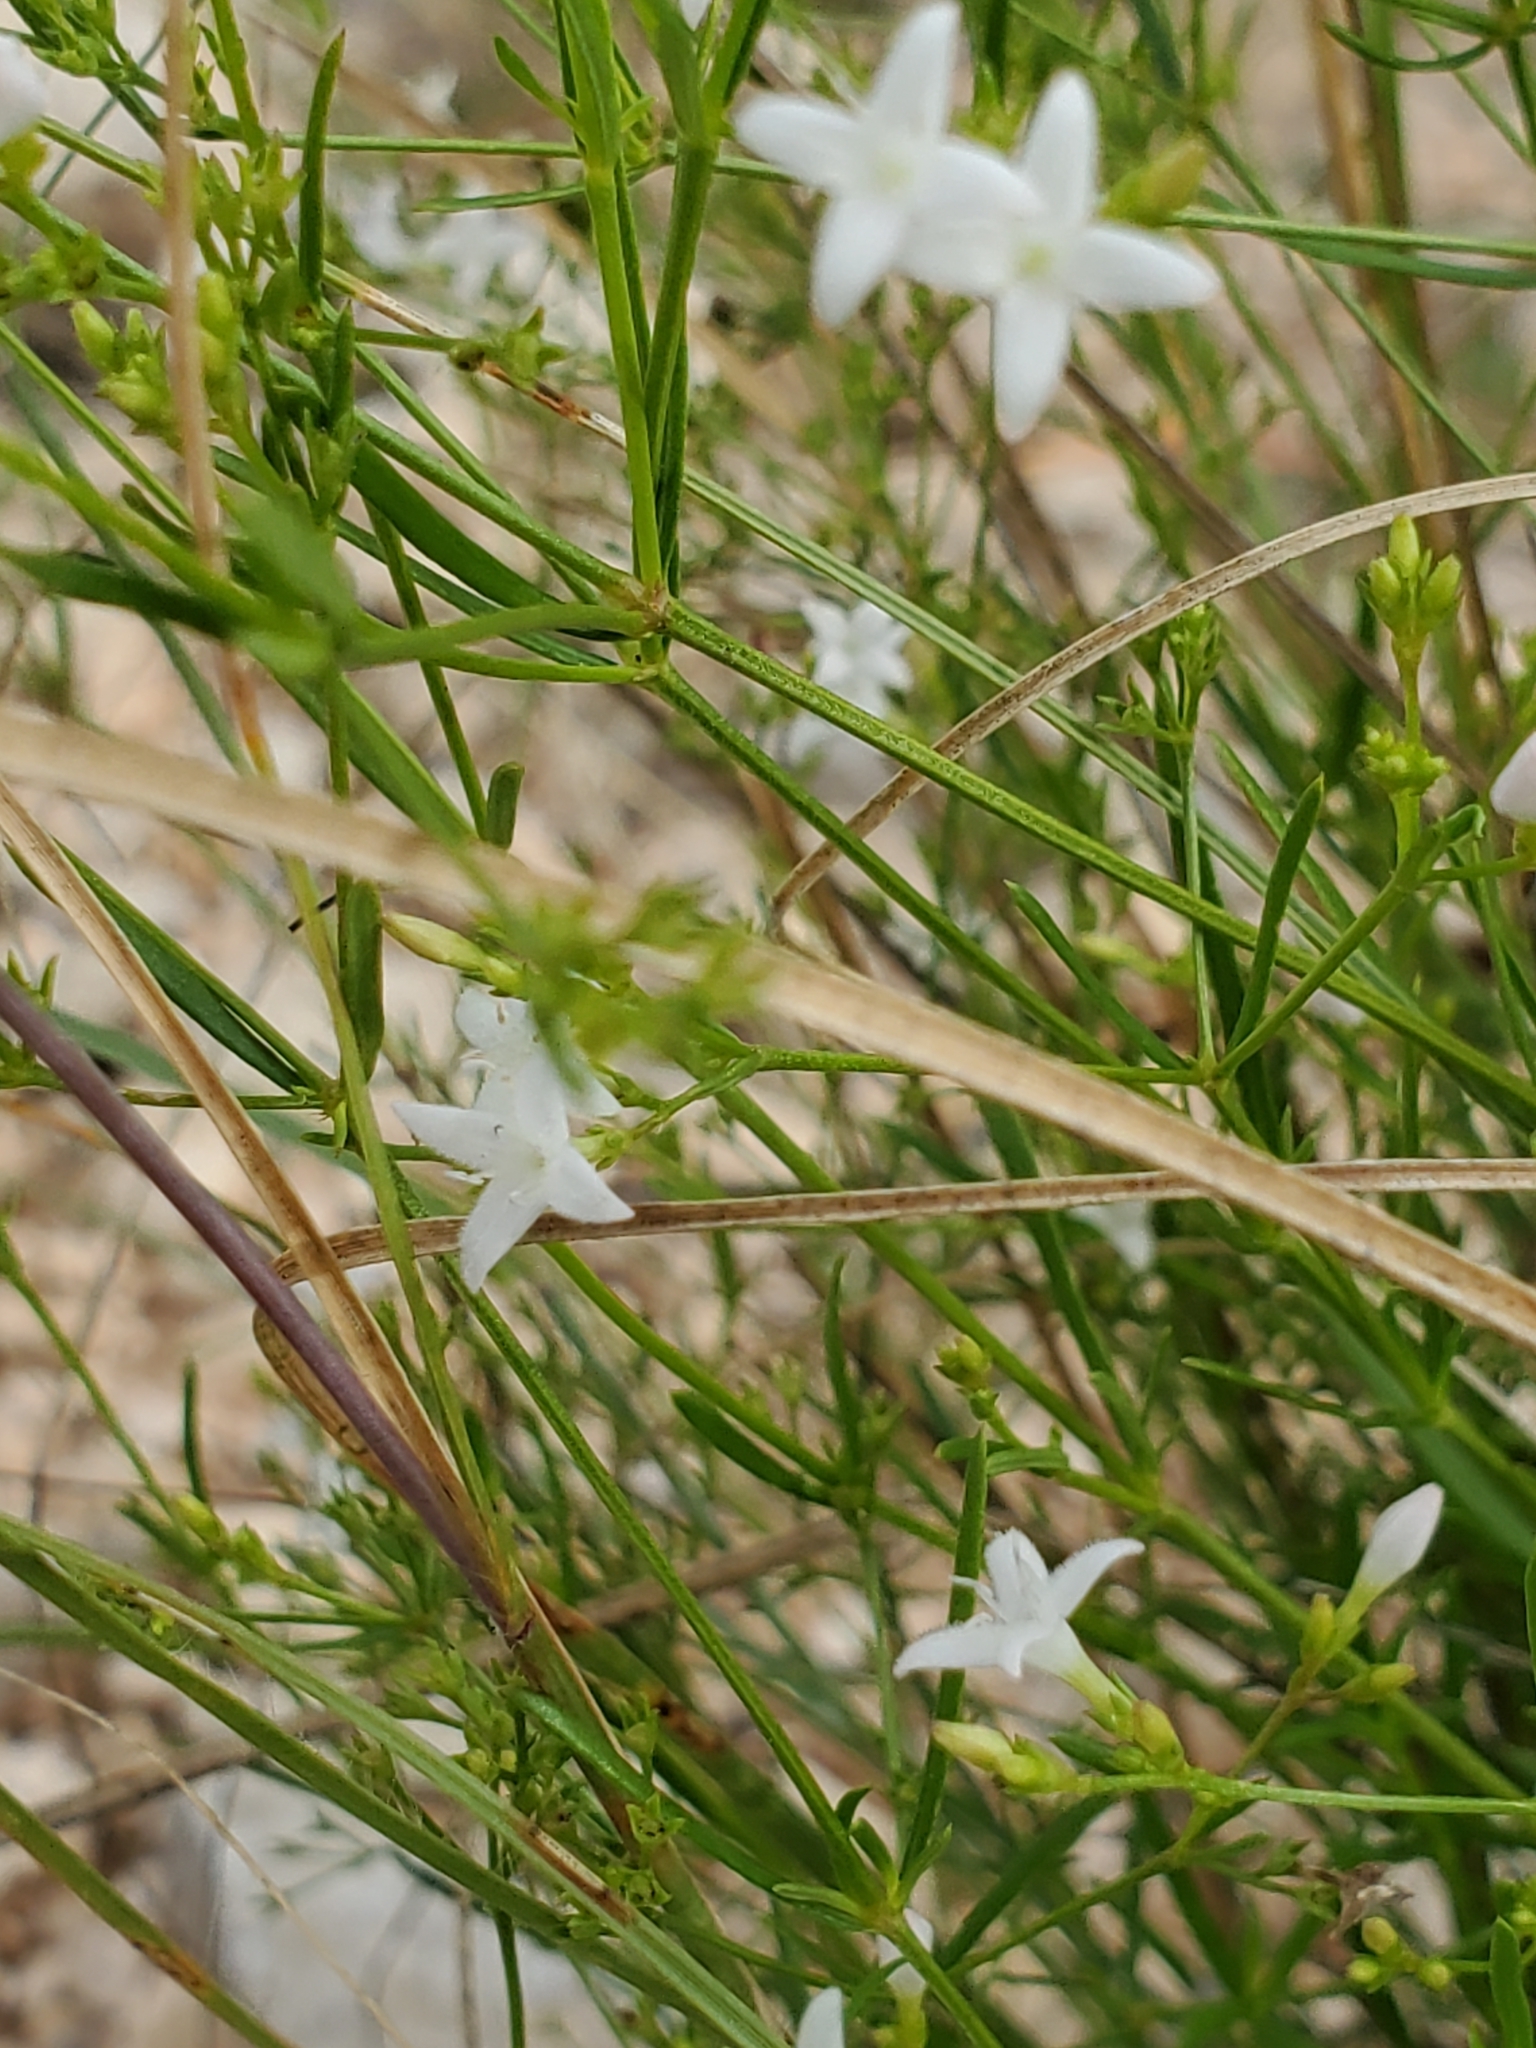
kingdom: Plantae
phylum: Tracheophyta
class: Magnoliopsida
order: Gentianales
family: Rubiaceae
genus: Stenaria
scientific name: Stenaria nigricans
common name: Diamondflowers
